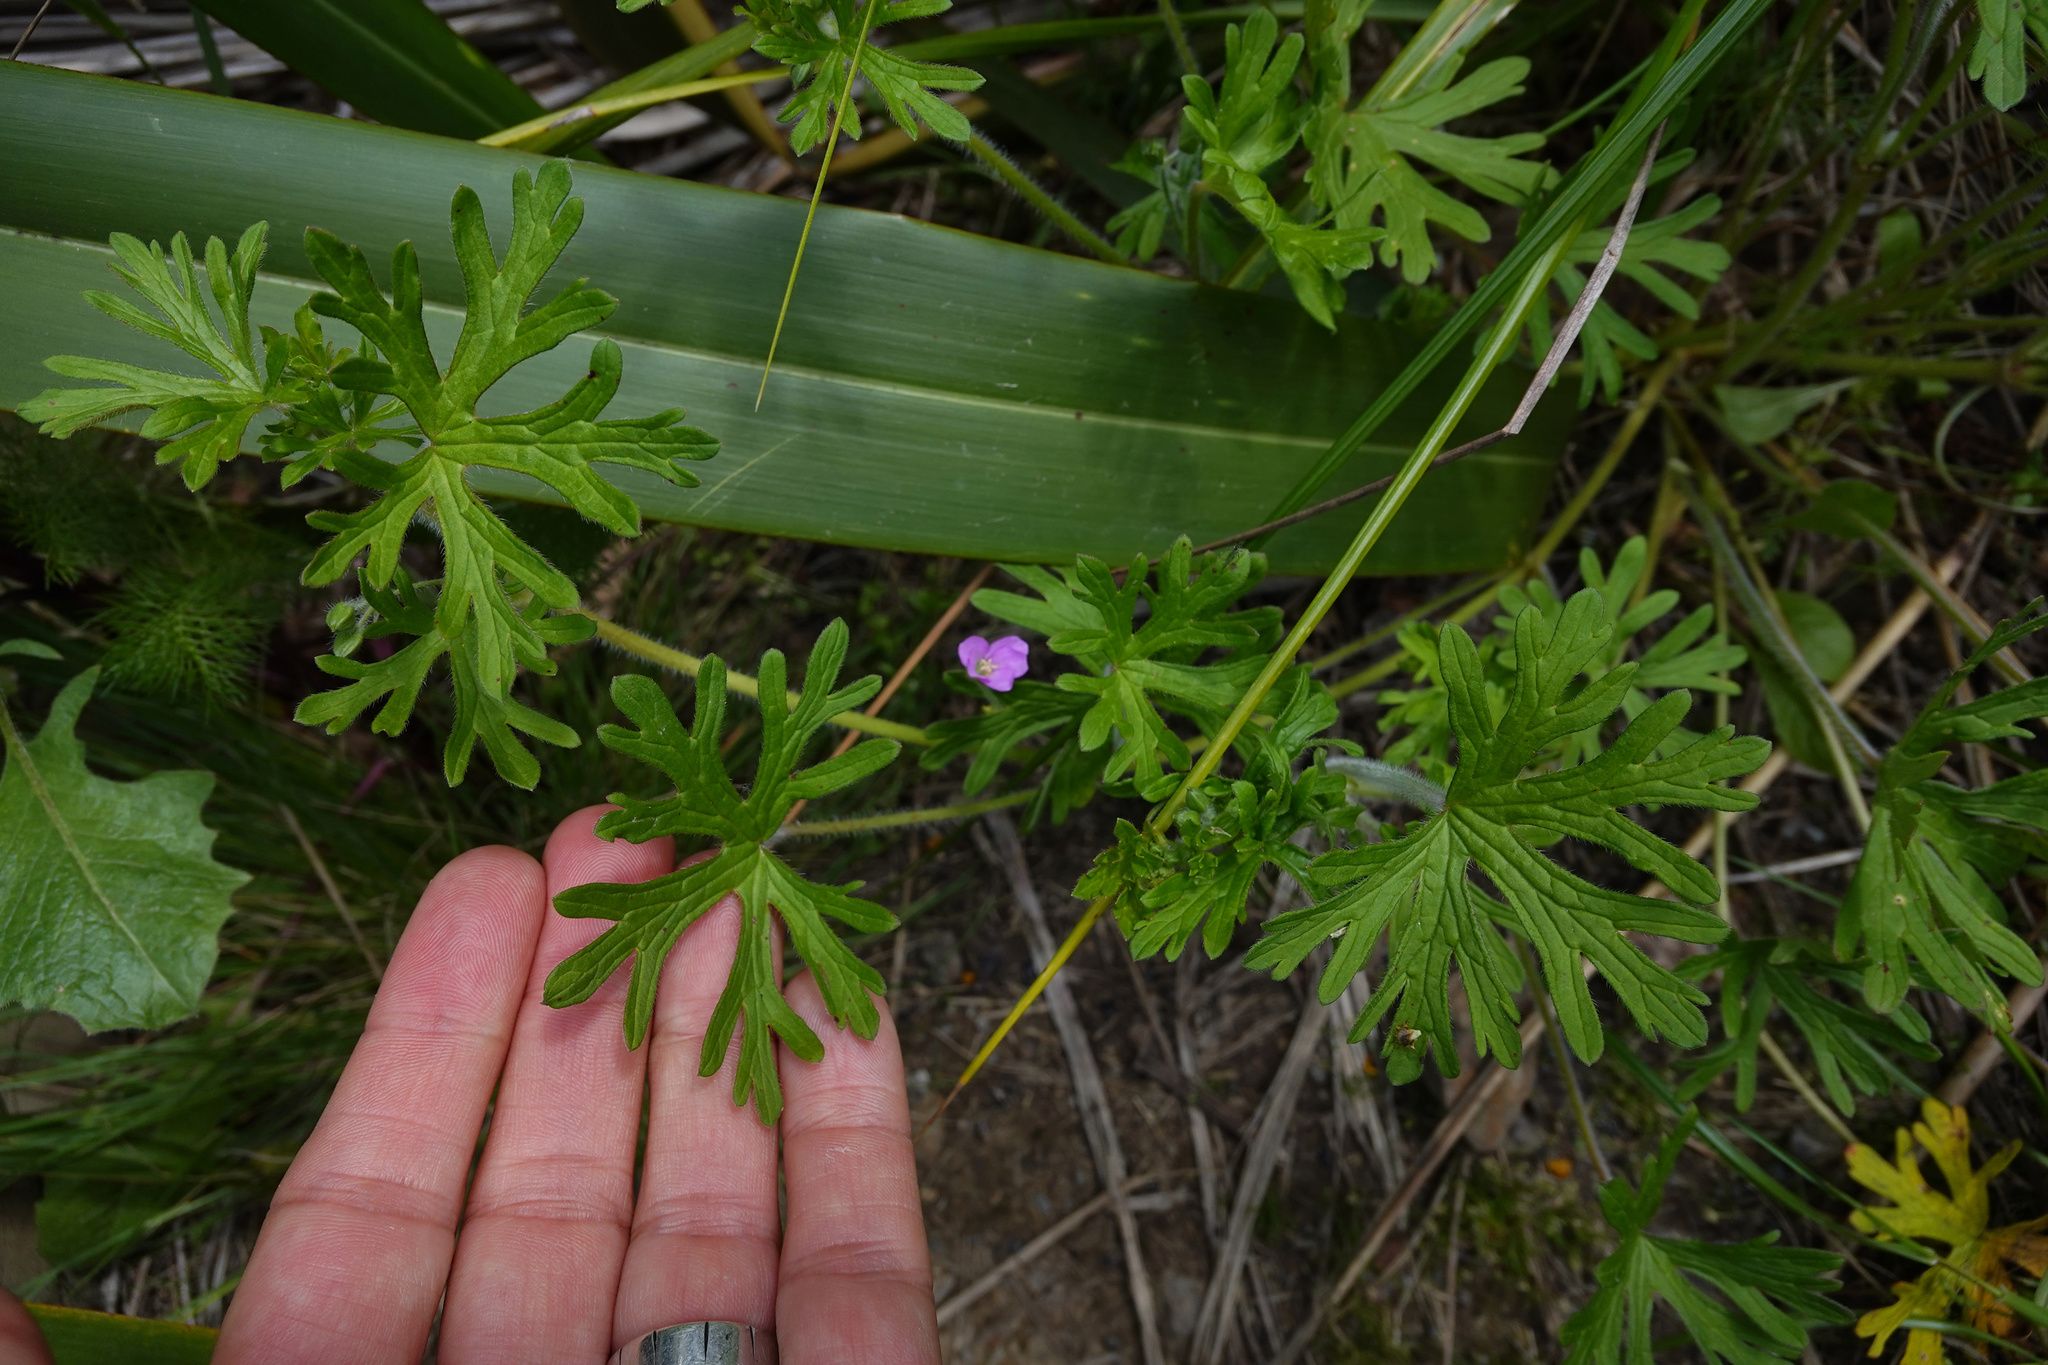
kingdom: Plantae
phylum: Tracheophyta
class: Magnoliopsida
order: Geraniales
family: Geraniaceae
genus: Geranium
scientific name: Geranium solanderi
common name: Solander's geranium
